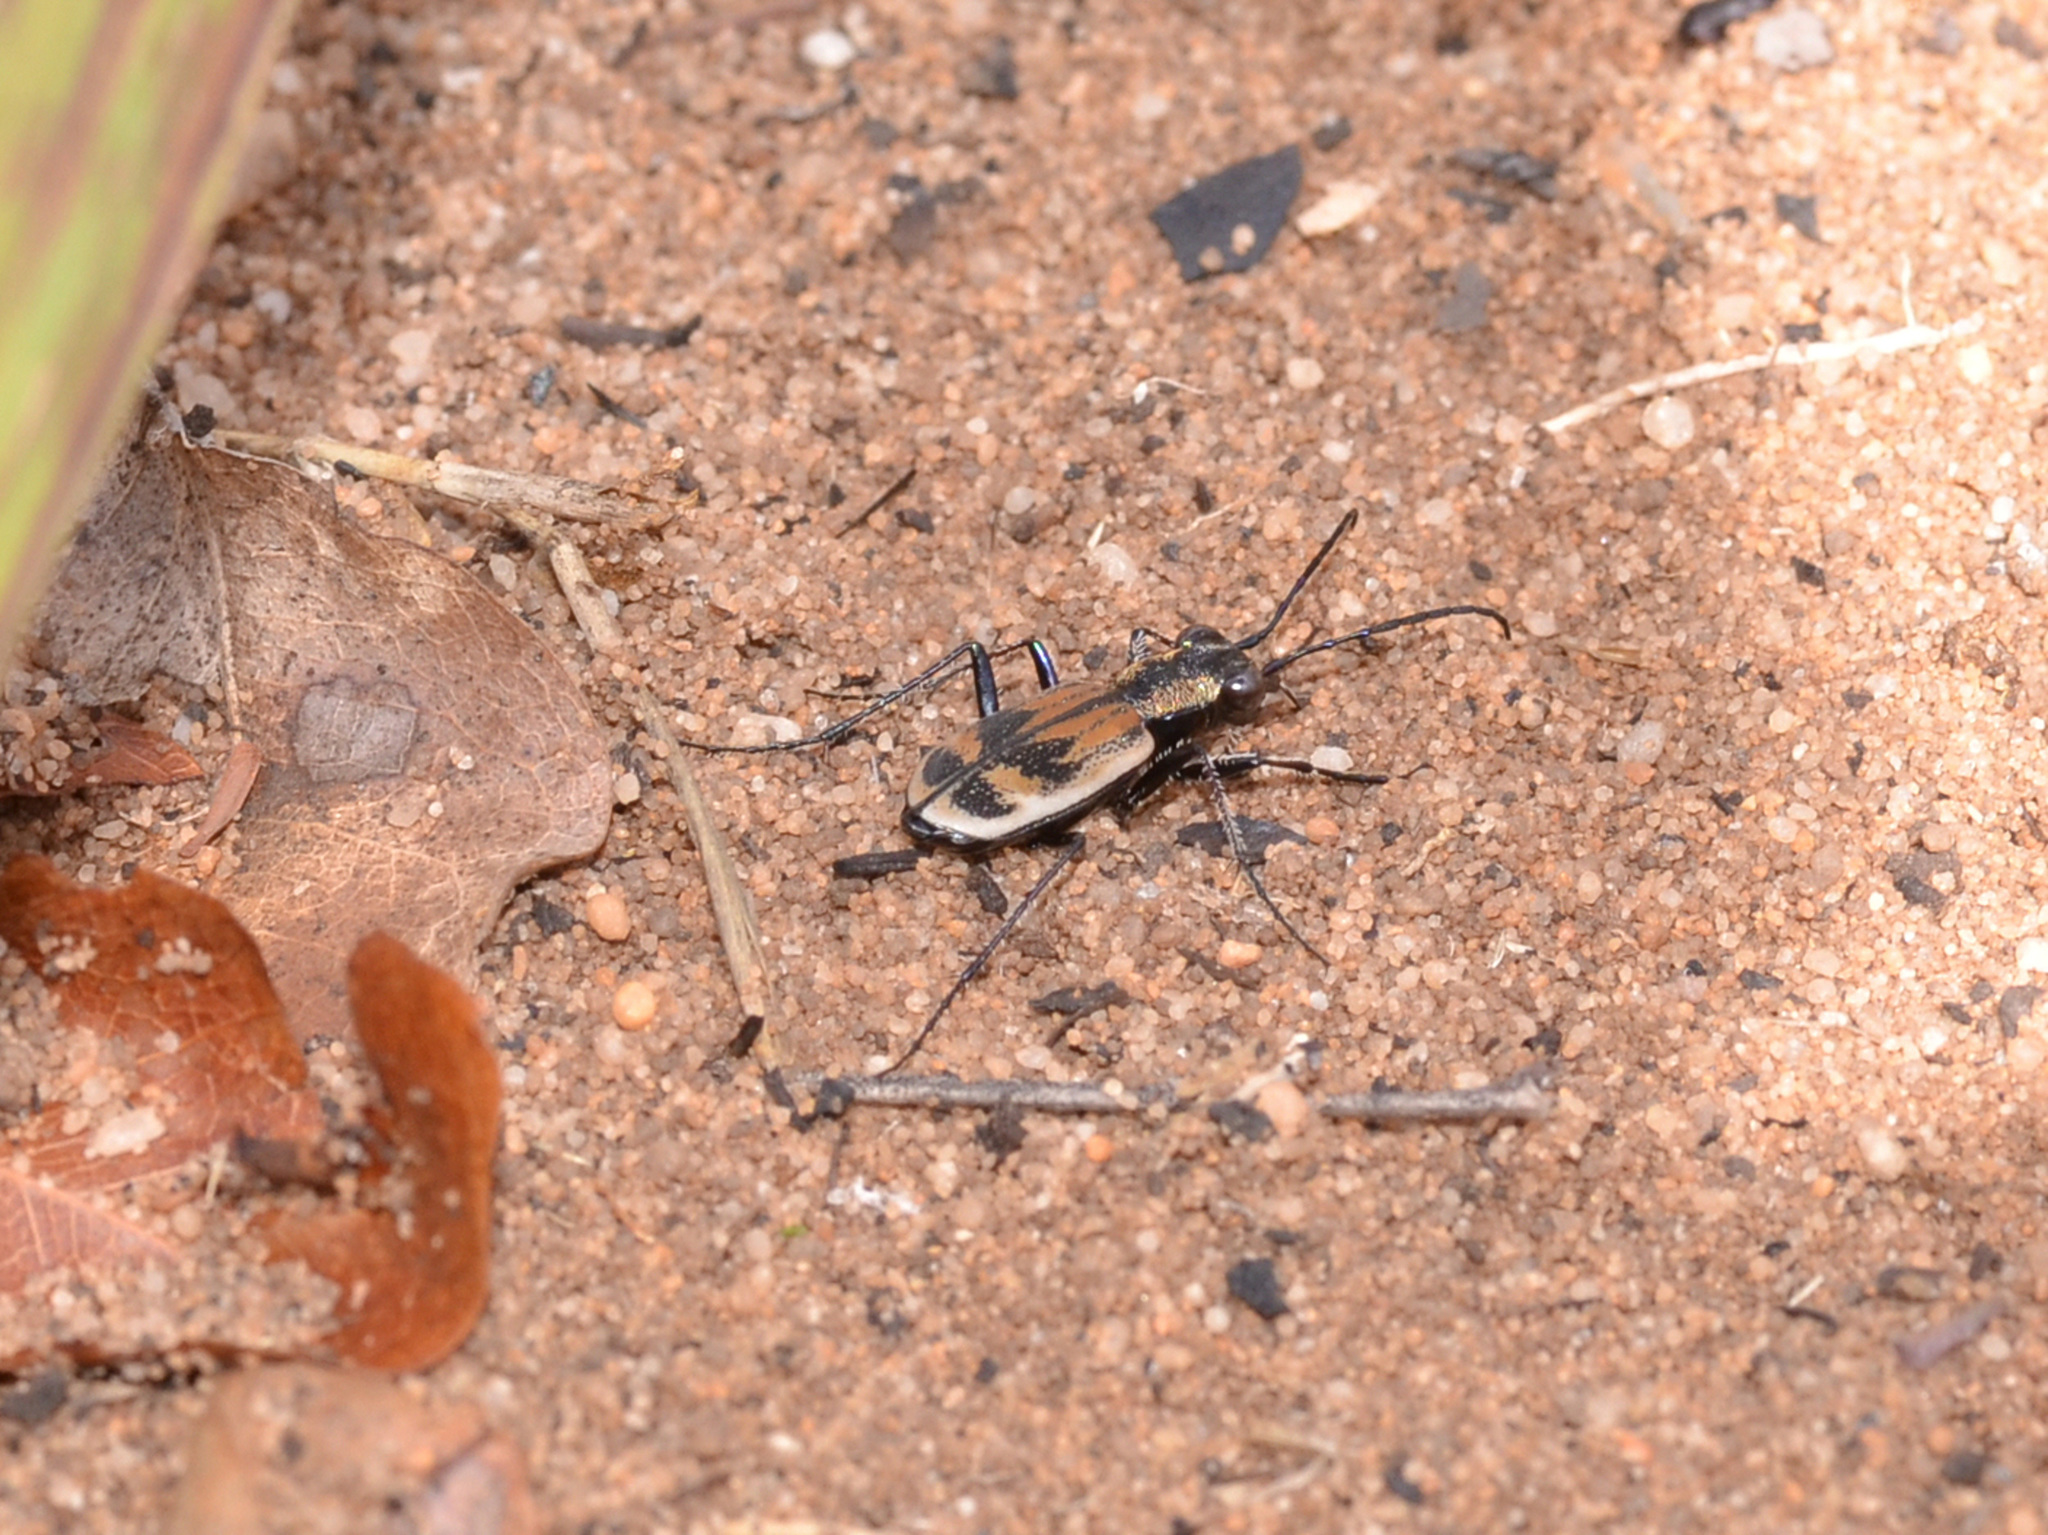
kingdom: Animalia
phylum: Arthropoda
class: Insecta
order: Coleoptera
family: Carabidae
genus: Cicindela
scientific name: Cicindela laticornis
